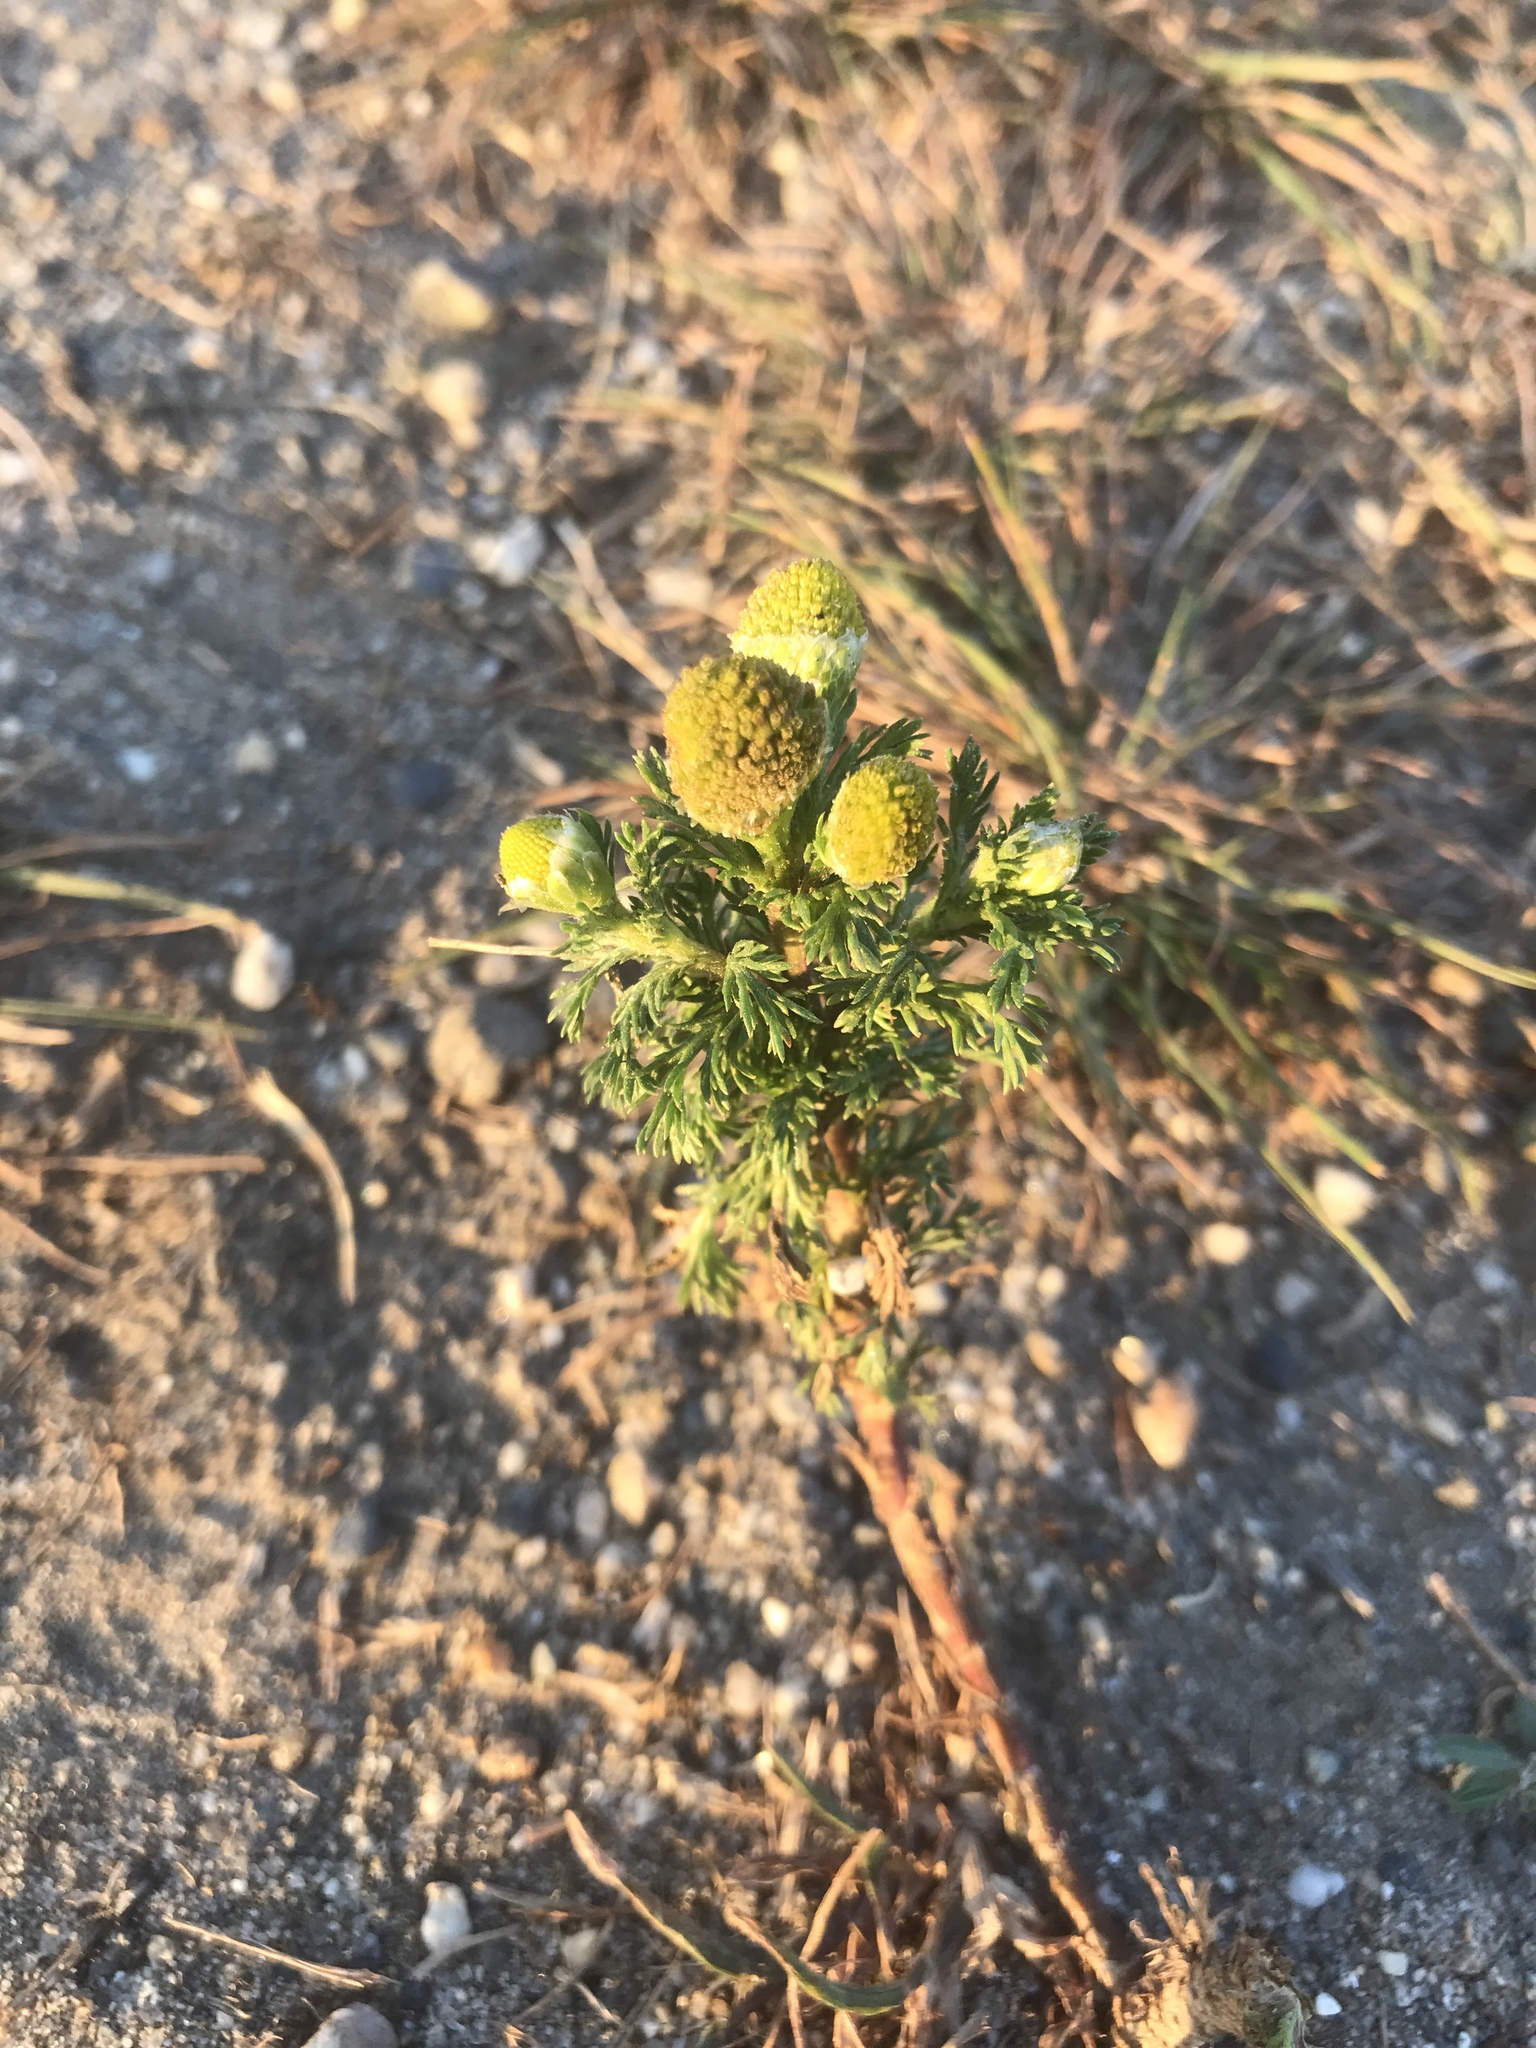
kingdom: Plantae
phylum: Tracheophyta
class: Magnoliopsida
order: Asterales
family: Asteraceae
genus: Matricaria
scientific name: Matricaria discoidea
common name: Disc mayweed
